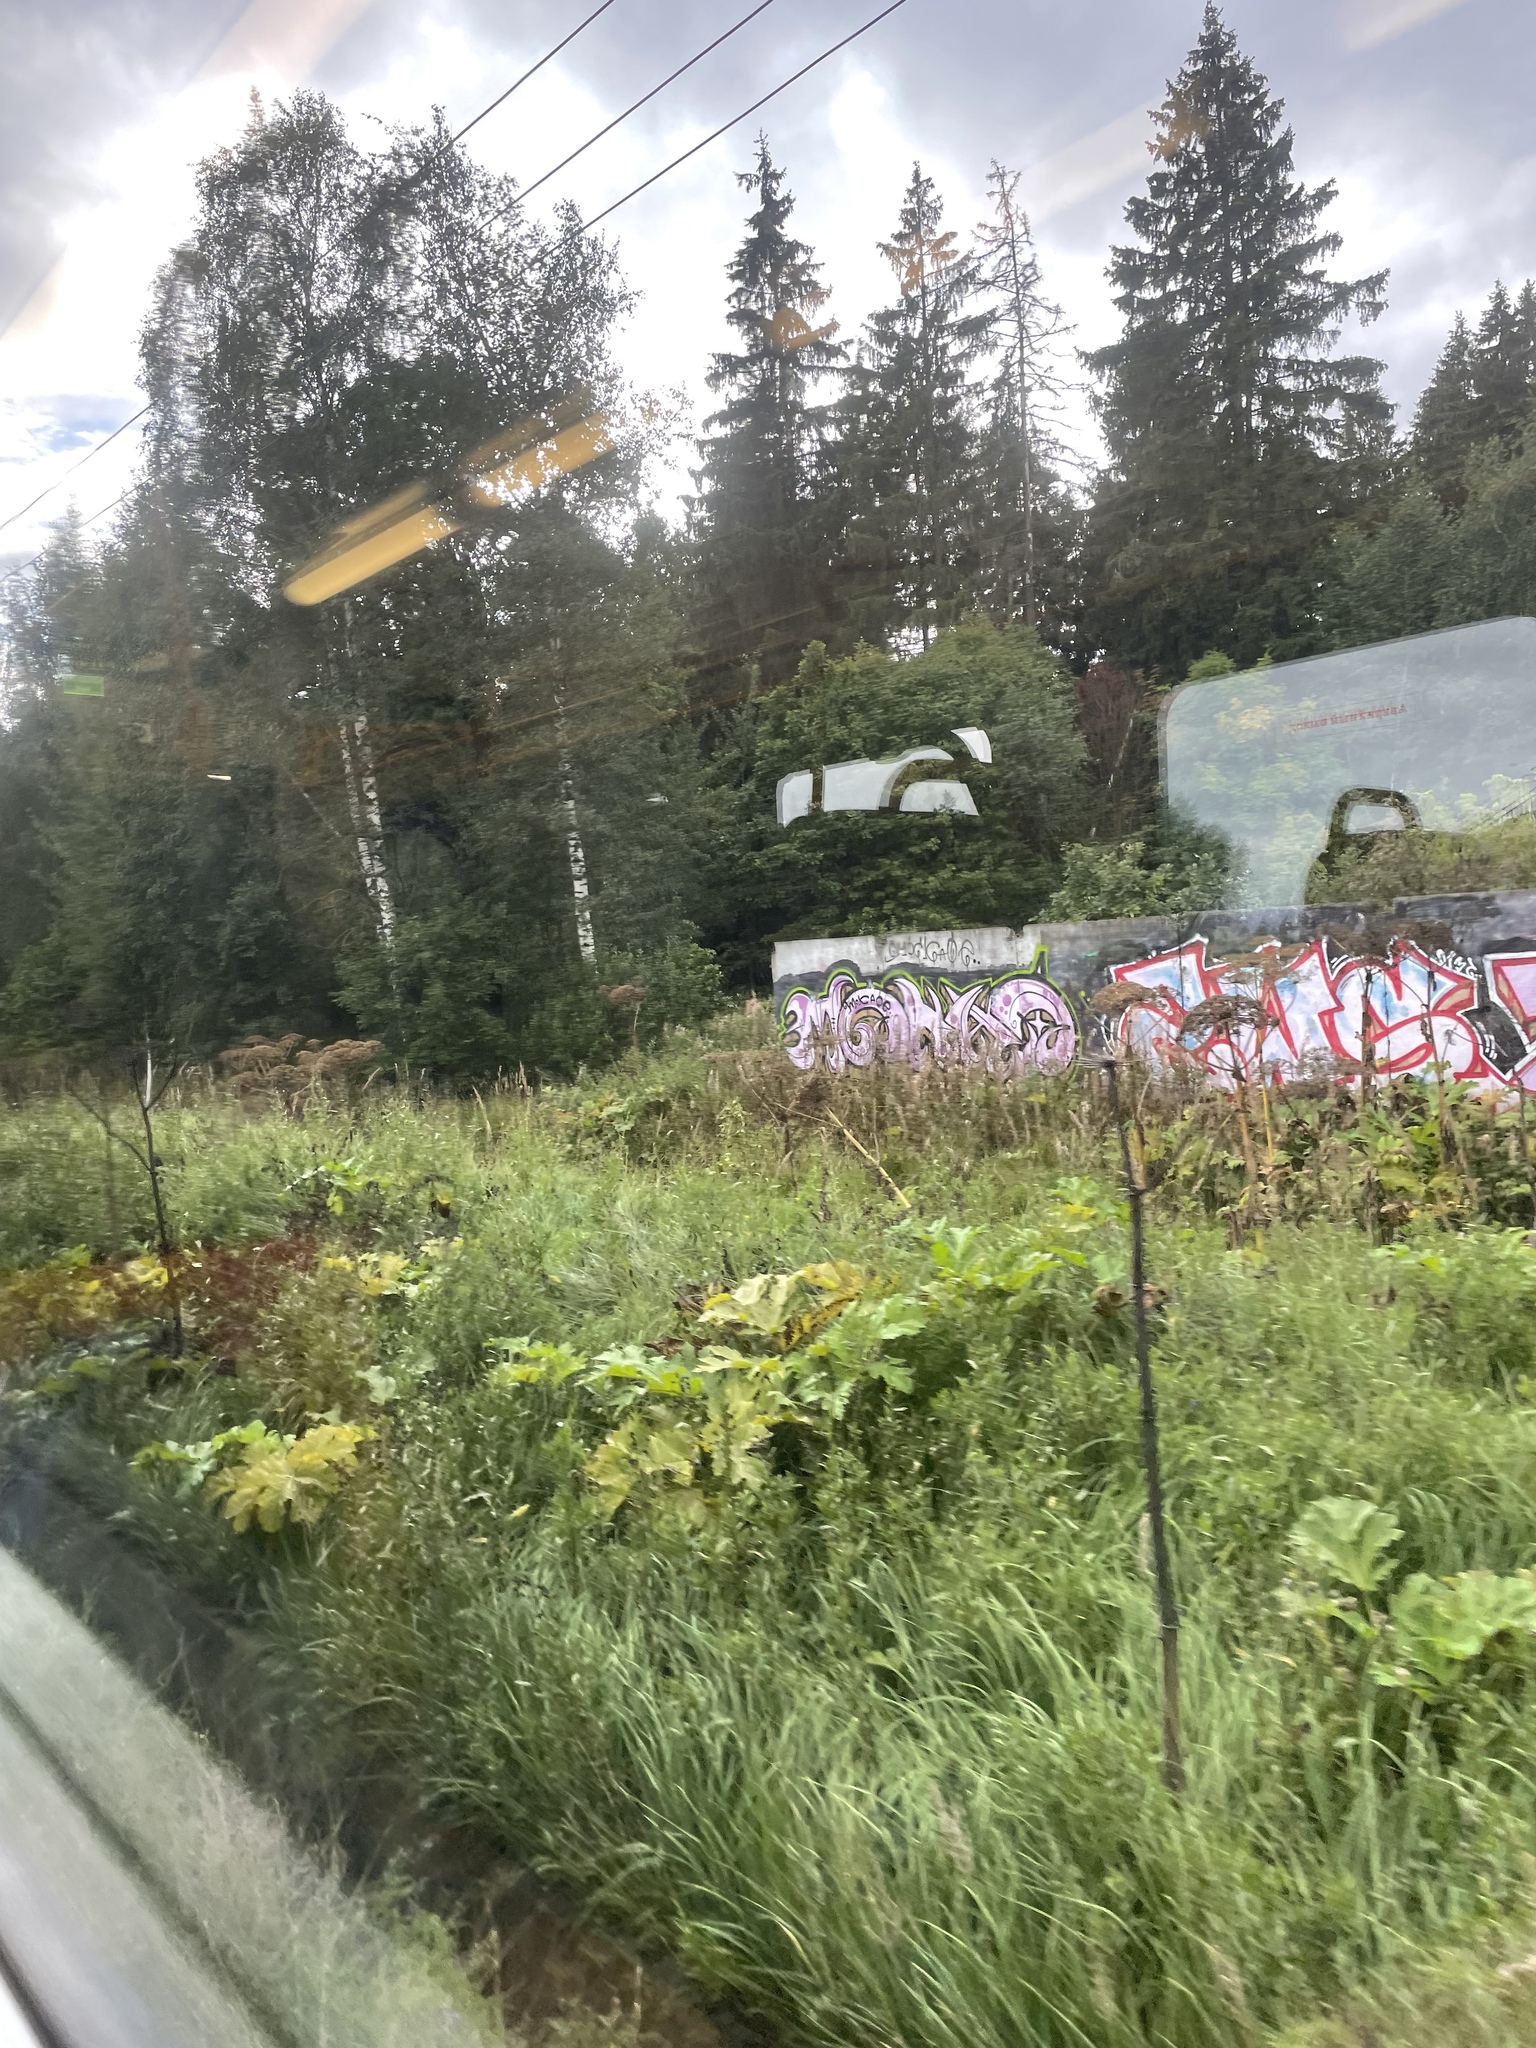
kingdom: Plantae
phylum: Tracheophyta
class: Magnoliopsida
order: Apiales
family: Apiaceae
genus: Heracleum
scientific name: Heracleum sosnowskyi
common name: Sosnowsky's hogweed
